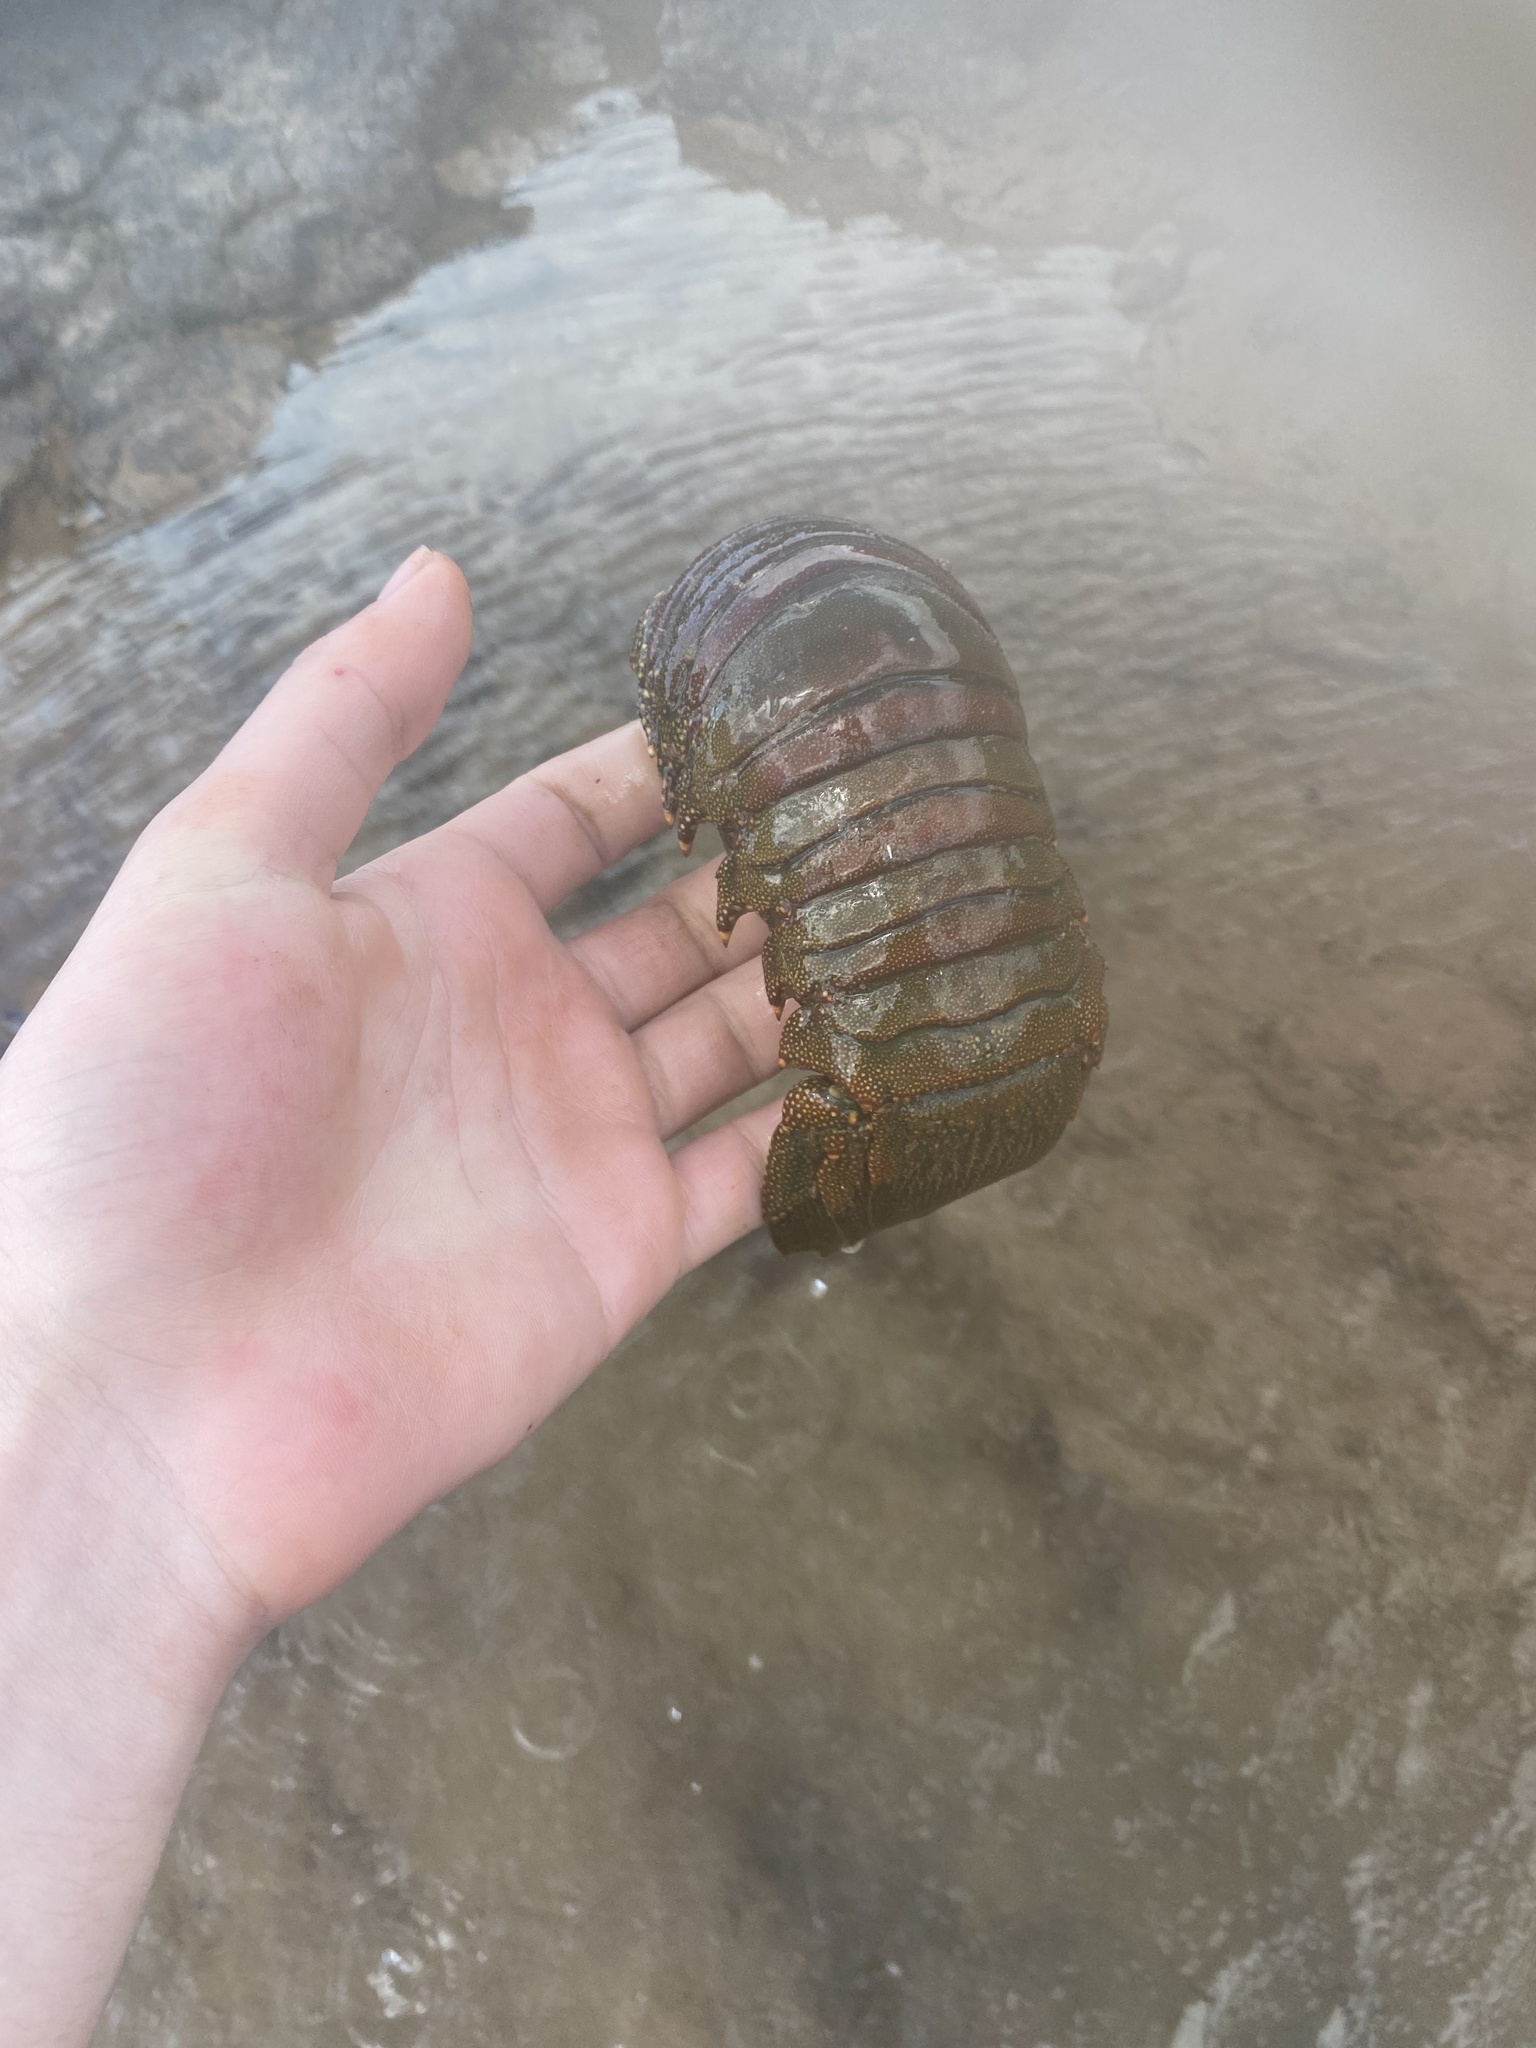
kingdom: Animalia
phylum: Arthropoda
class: Malacostraca
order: Decapoda
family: Palinuridae
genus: Panulirus
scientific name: Panulirus penicillatus
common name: Pronghorn spiny lobster
